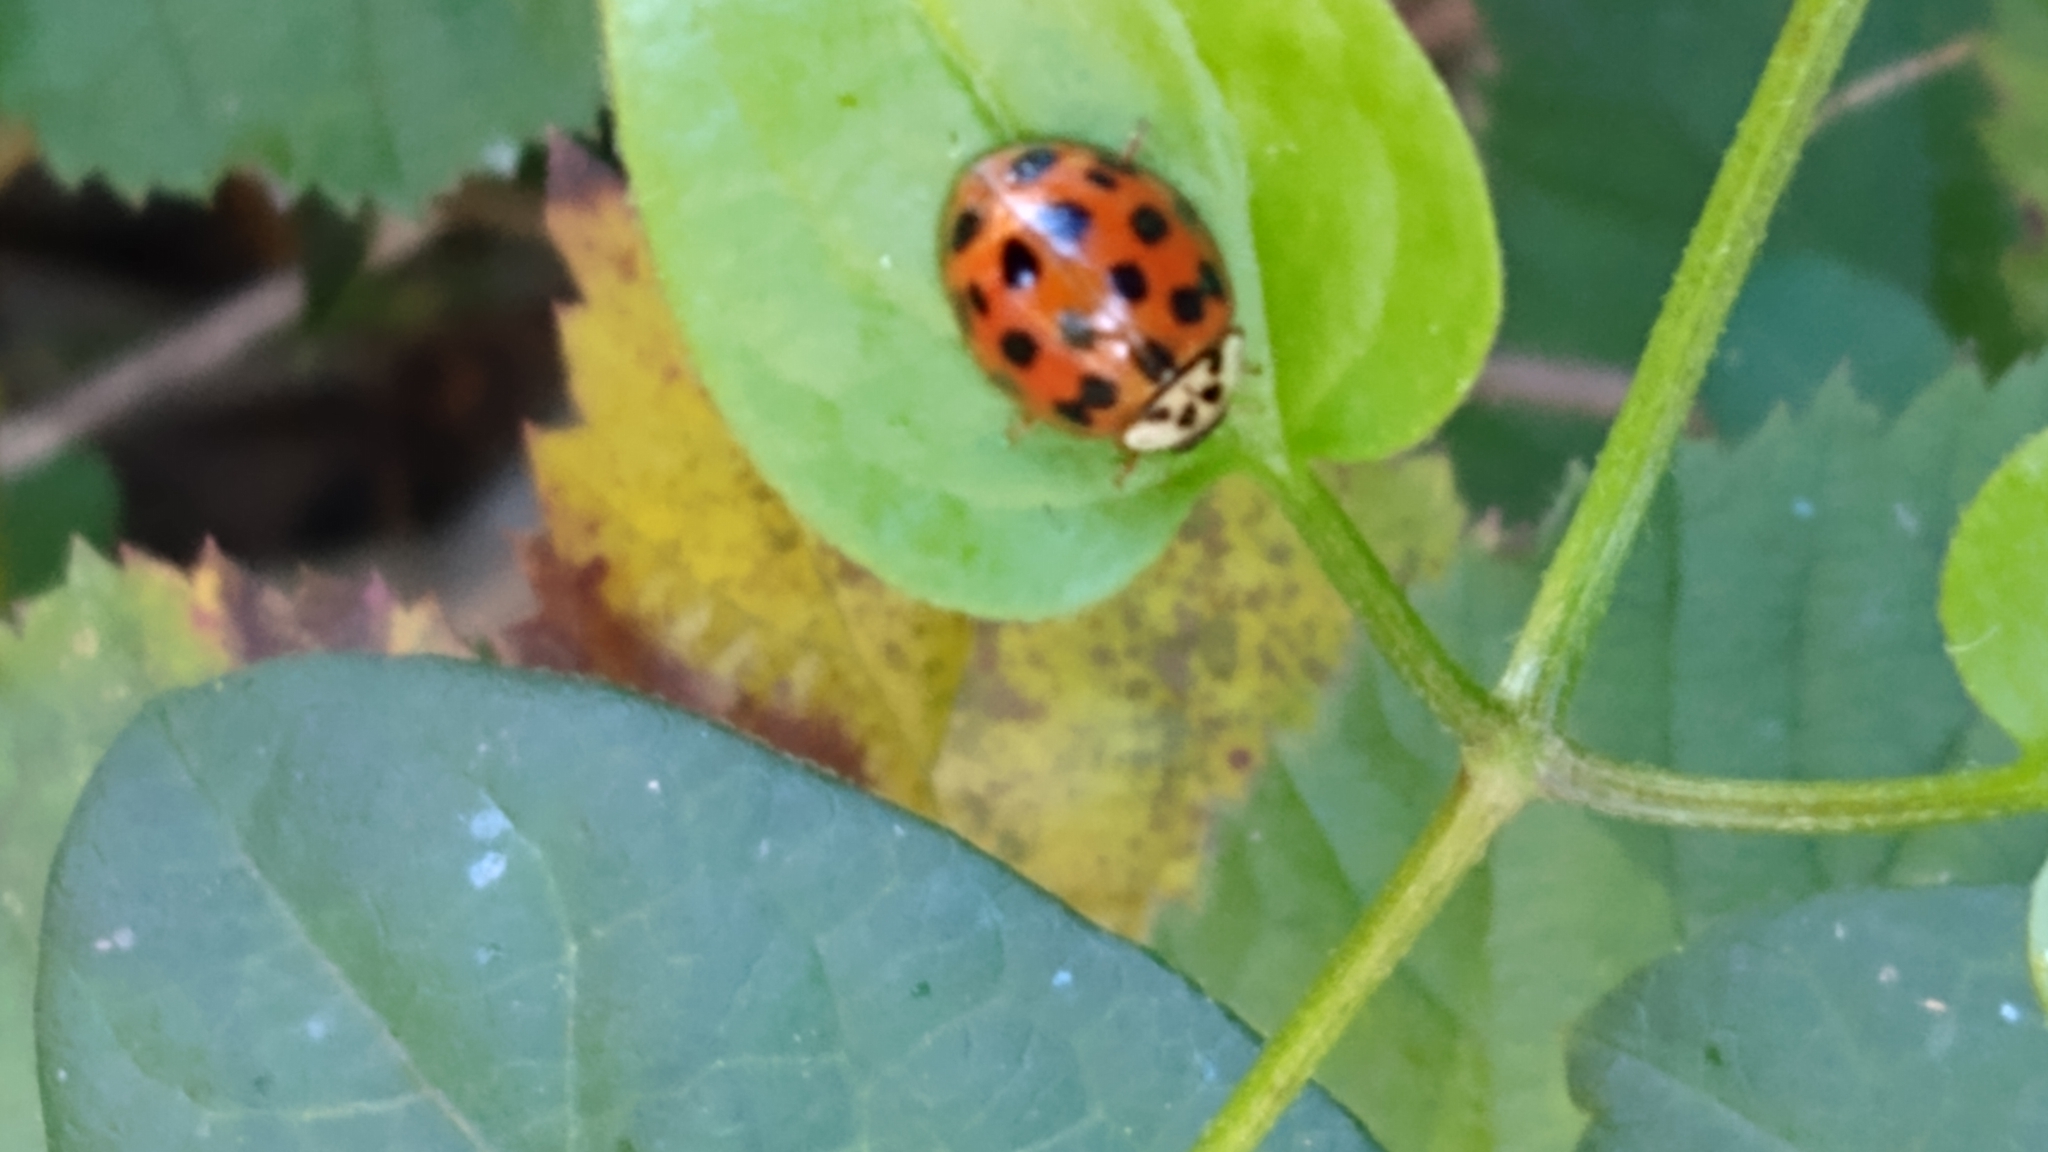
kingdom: Animalia
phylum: Arthropoda
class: Insecta
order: Coleoptera
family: Coccinellidae
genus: Harmonia
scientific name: Harmonia axyridis
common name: Harlequin ladybird
